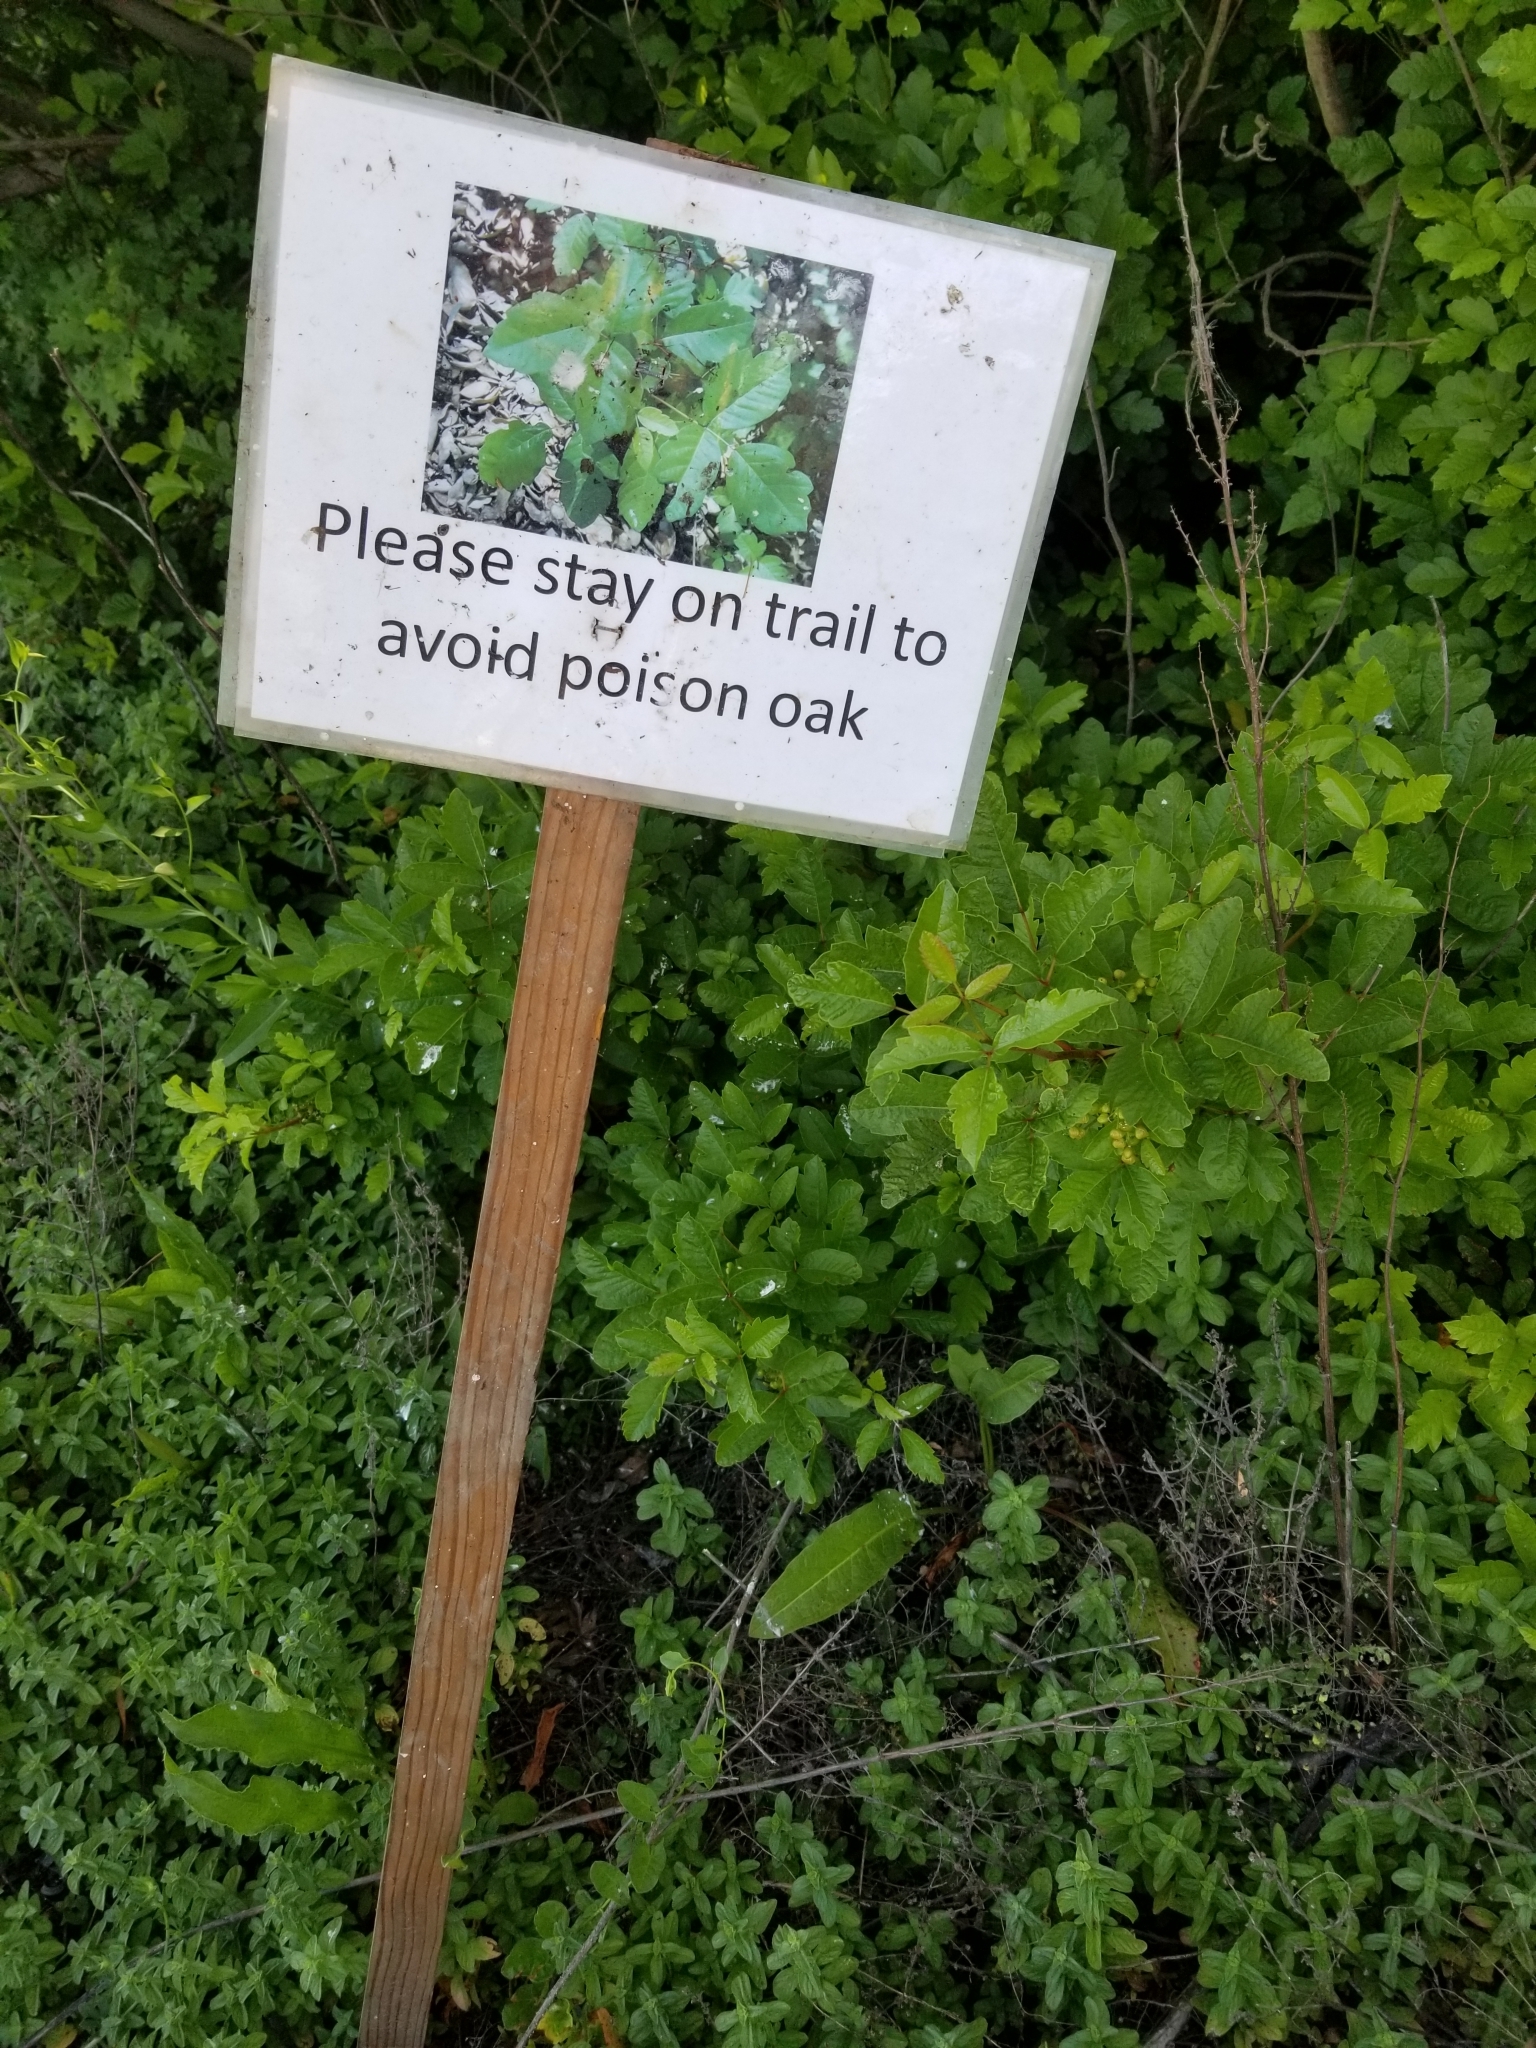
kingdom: Plantae
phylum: Tracheophyta
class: Magnoliopsida
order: Sapindales
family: Anacardiaceae
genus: Toxicodendron
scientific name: Toxicodendron diversilobum
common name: Pacific poison-oak
